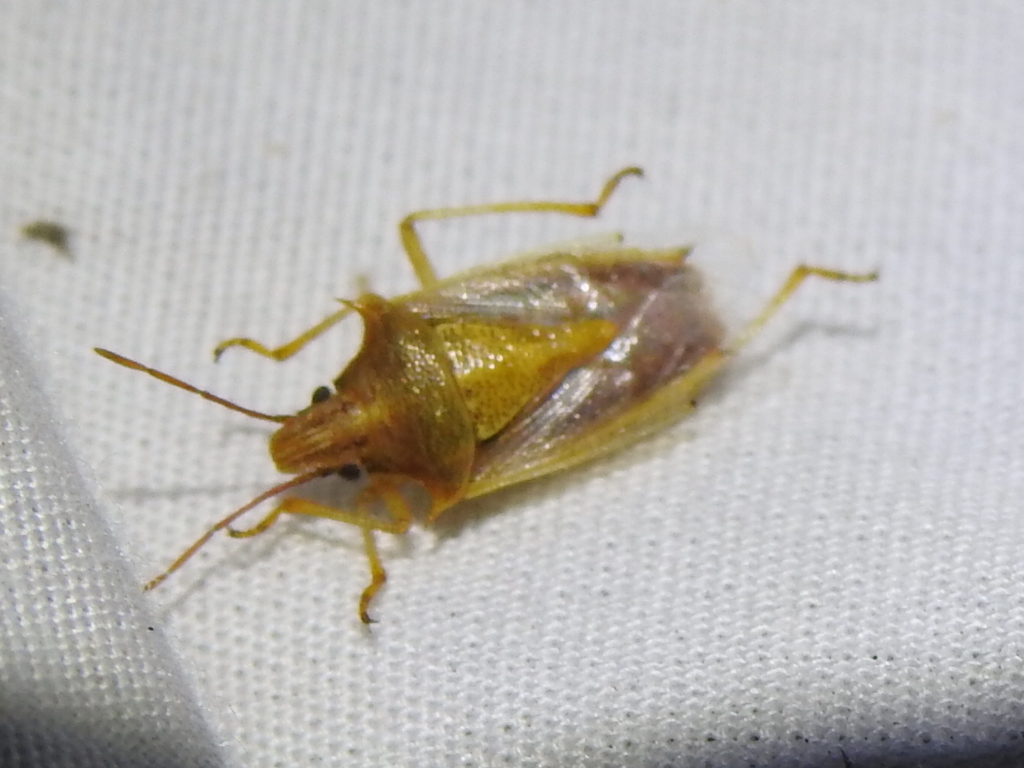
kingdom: Animalia
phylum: Arthropoda
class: Insecta
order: Hemiptera
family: Pentatomidae
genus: Oebalus
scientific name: Oebalus pugnax
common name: Rice stink bug
